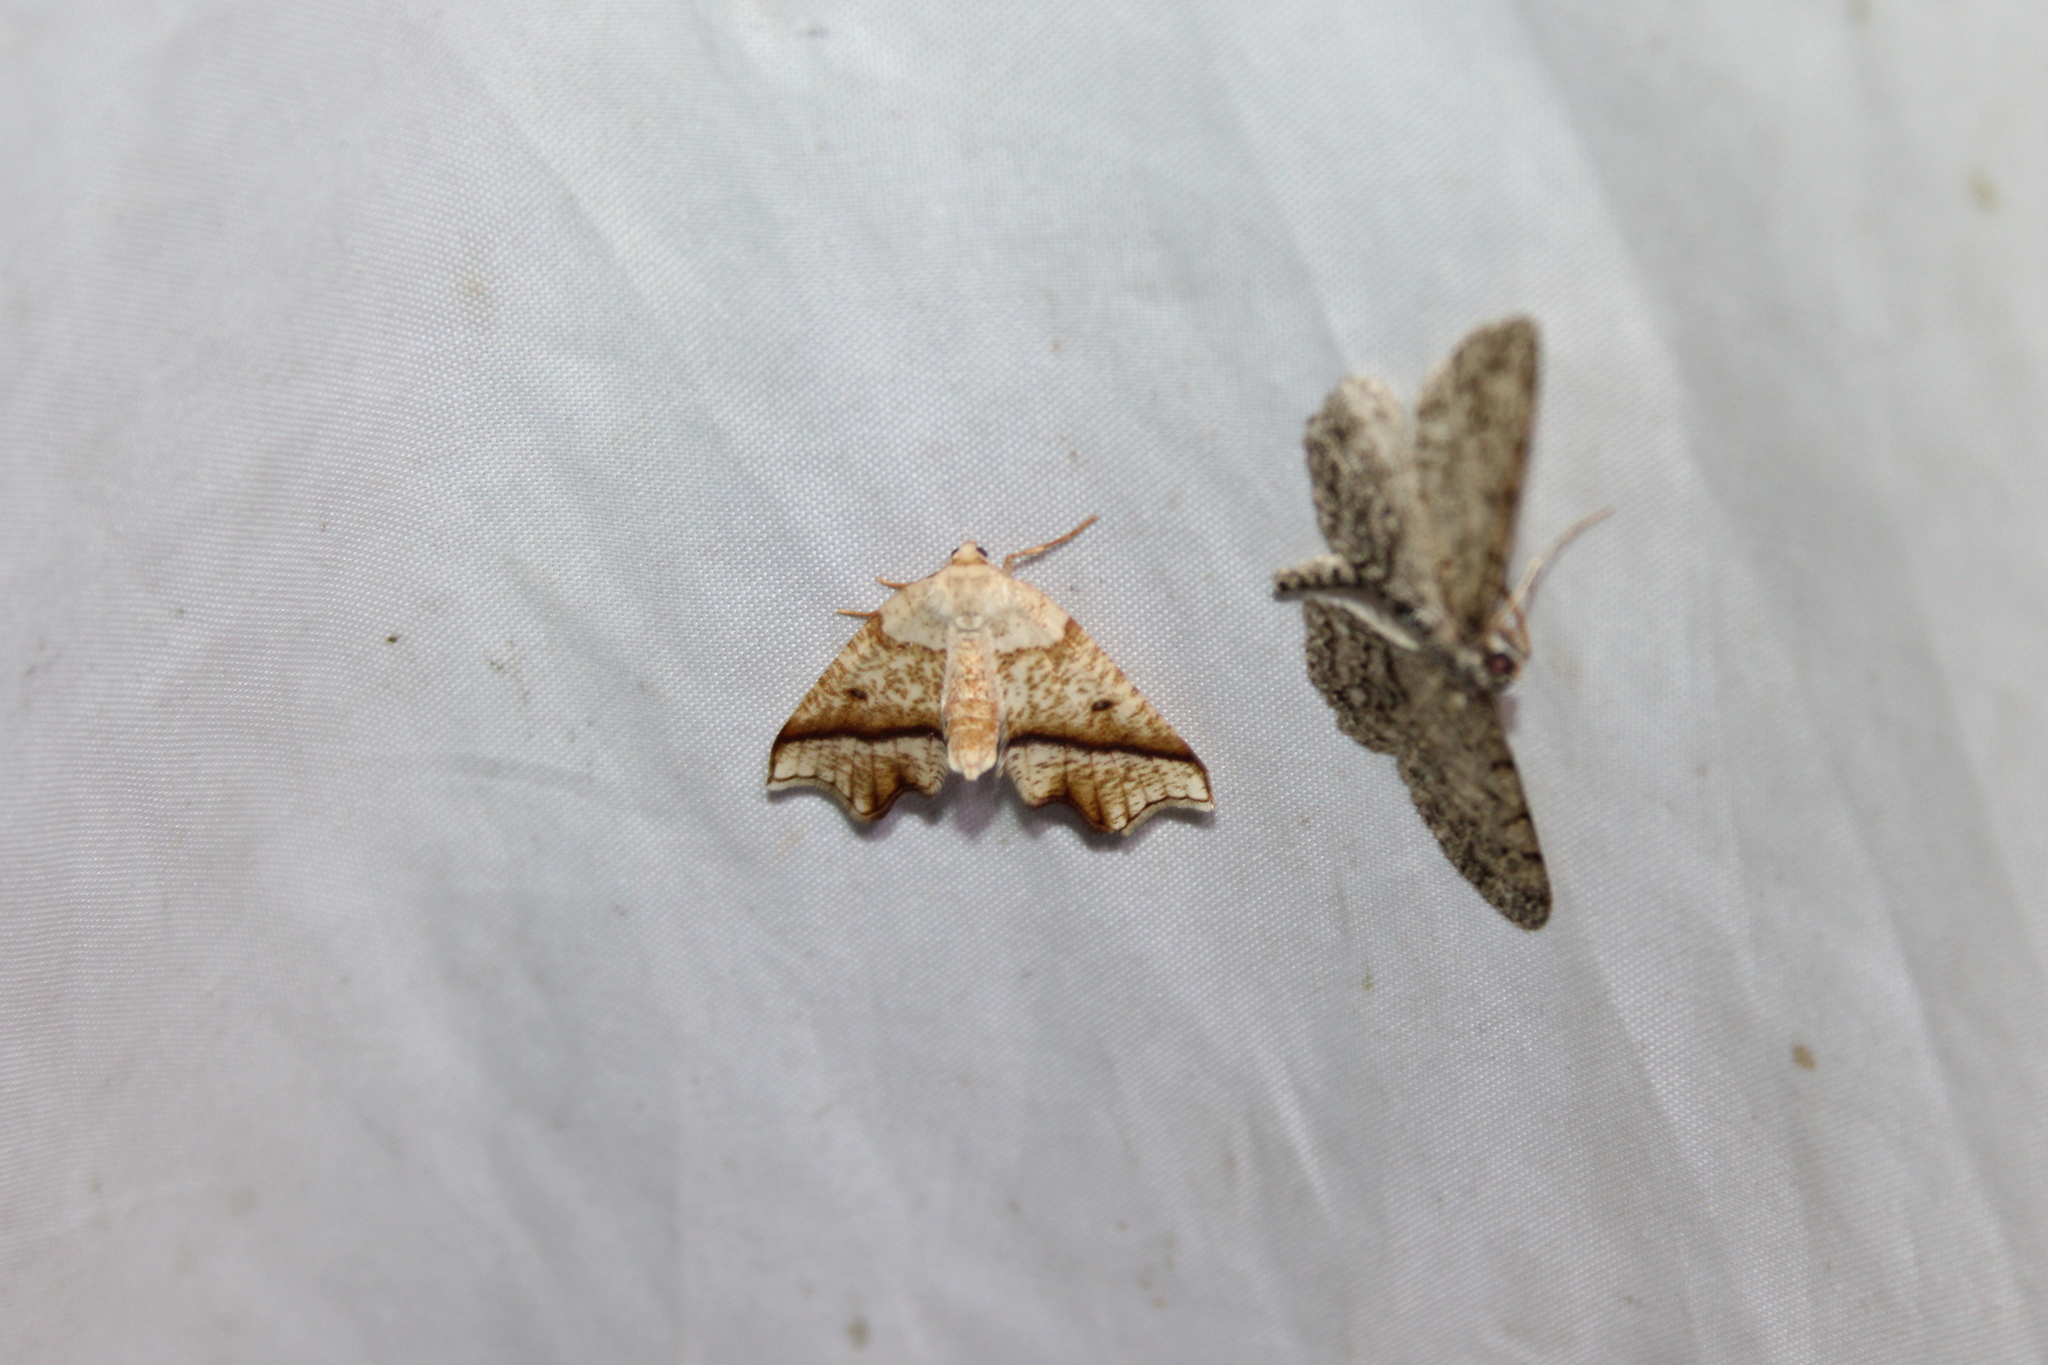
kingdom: Animalia
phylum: Arthropoda
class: Insecta
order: Lepidoptera
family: Geometridae
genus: Plagodis
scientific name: Plagodis alcoolaria
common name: Hollow-spotted plagodis
